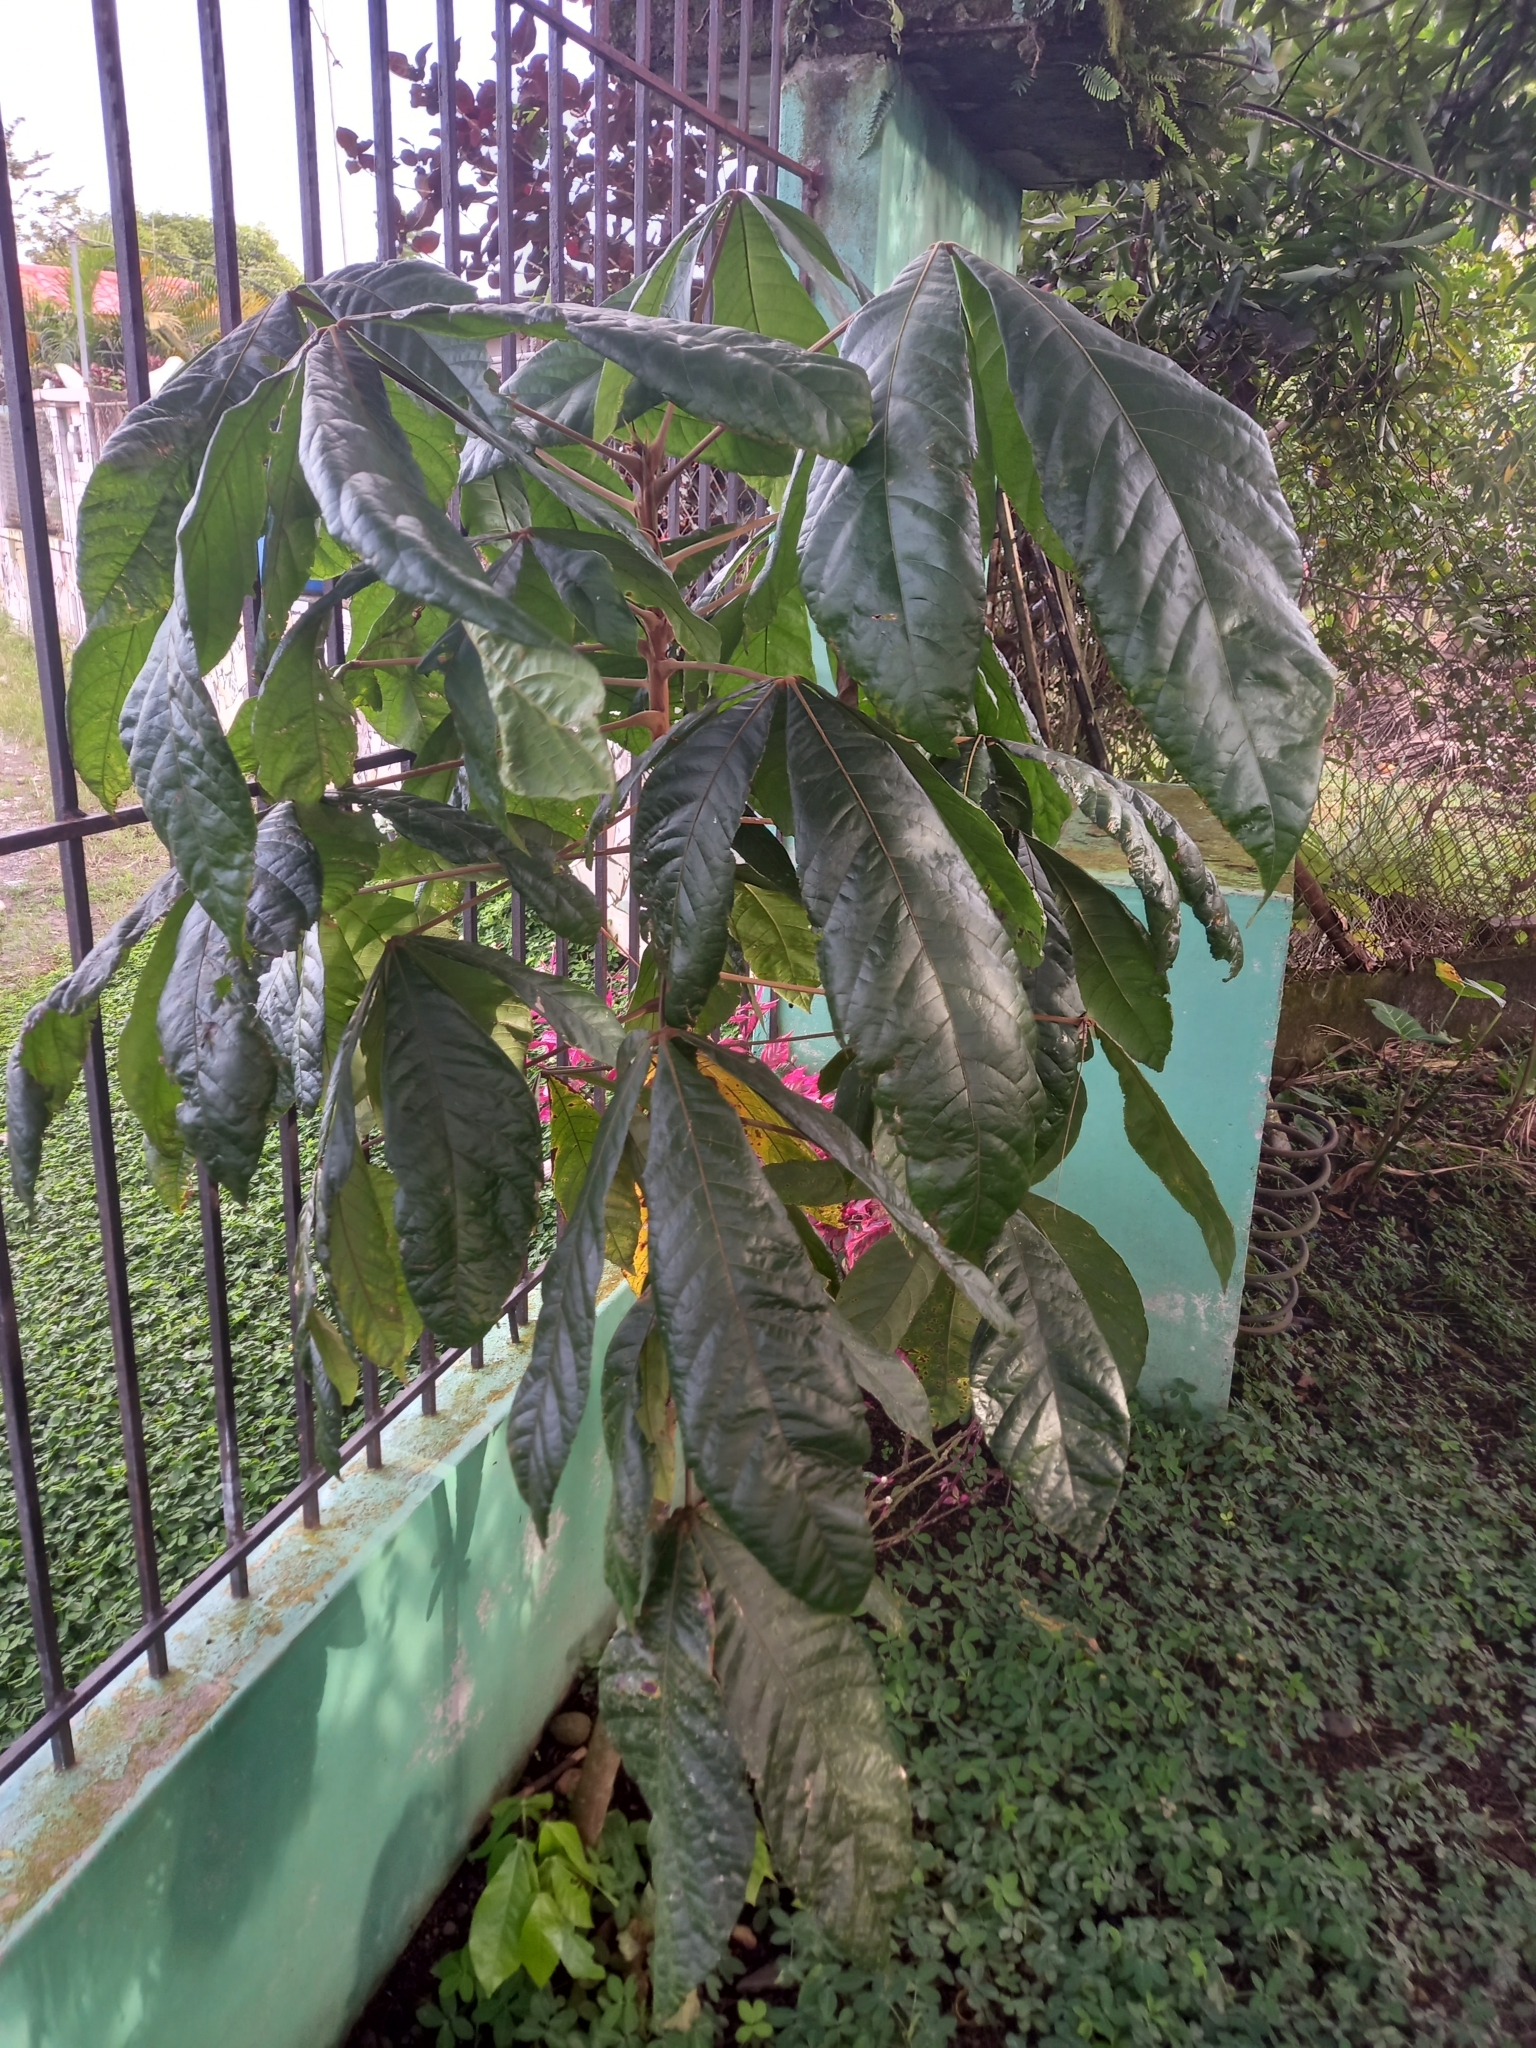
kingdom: Plantae
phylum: Tracheophyta
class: Magnoliopsida
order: Malvales
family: Malvaceae
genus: Herrania
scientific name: Herrania purpurea
